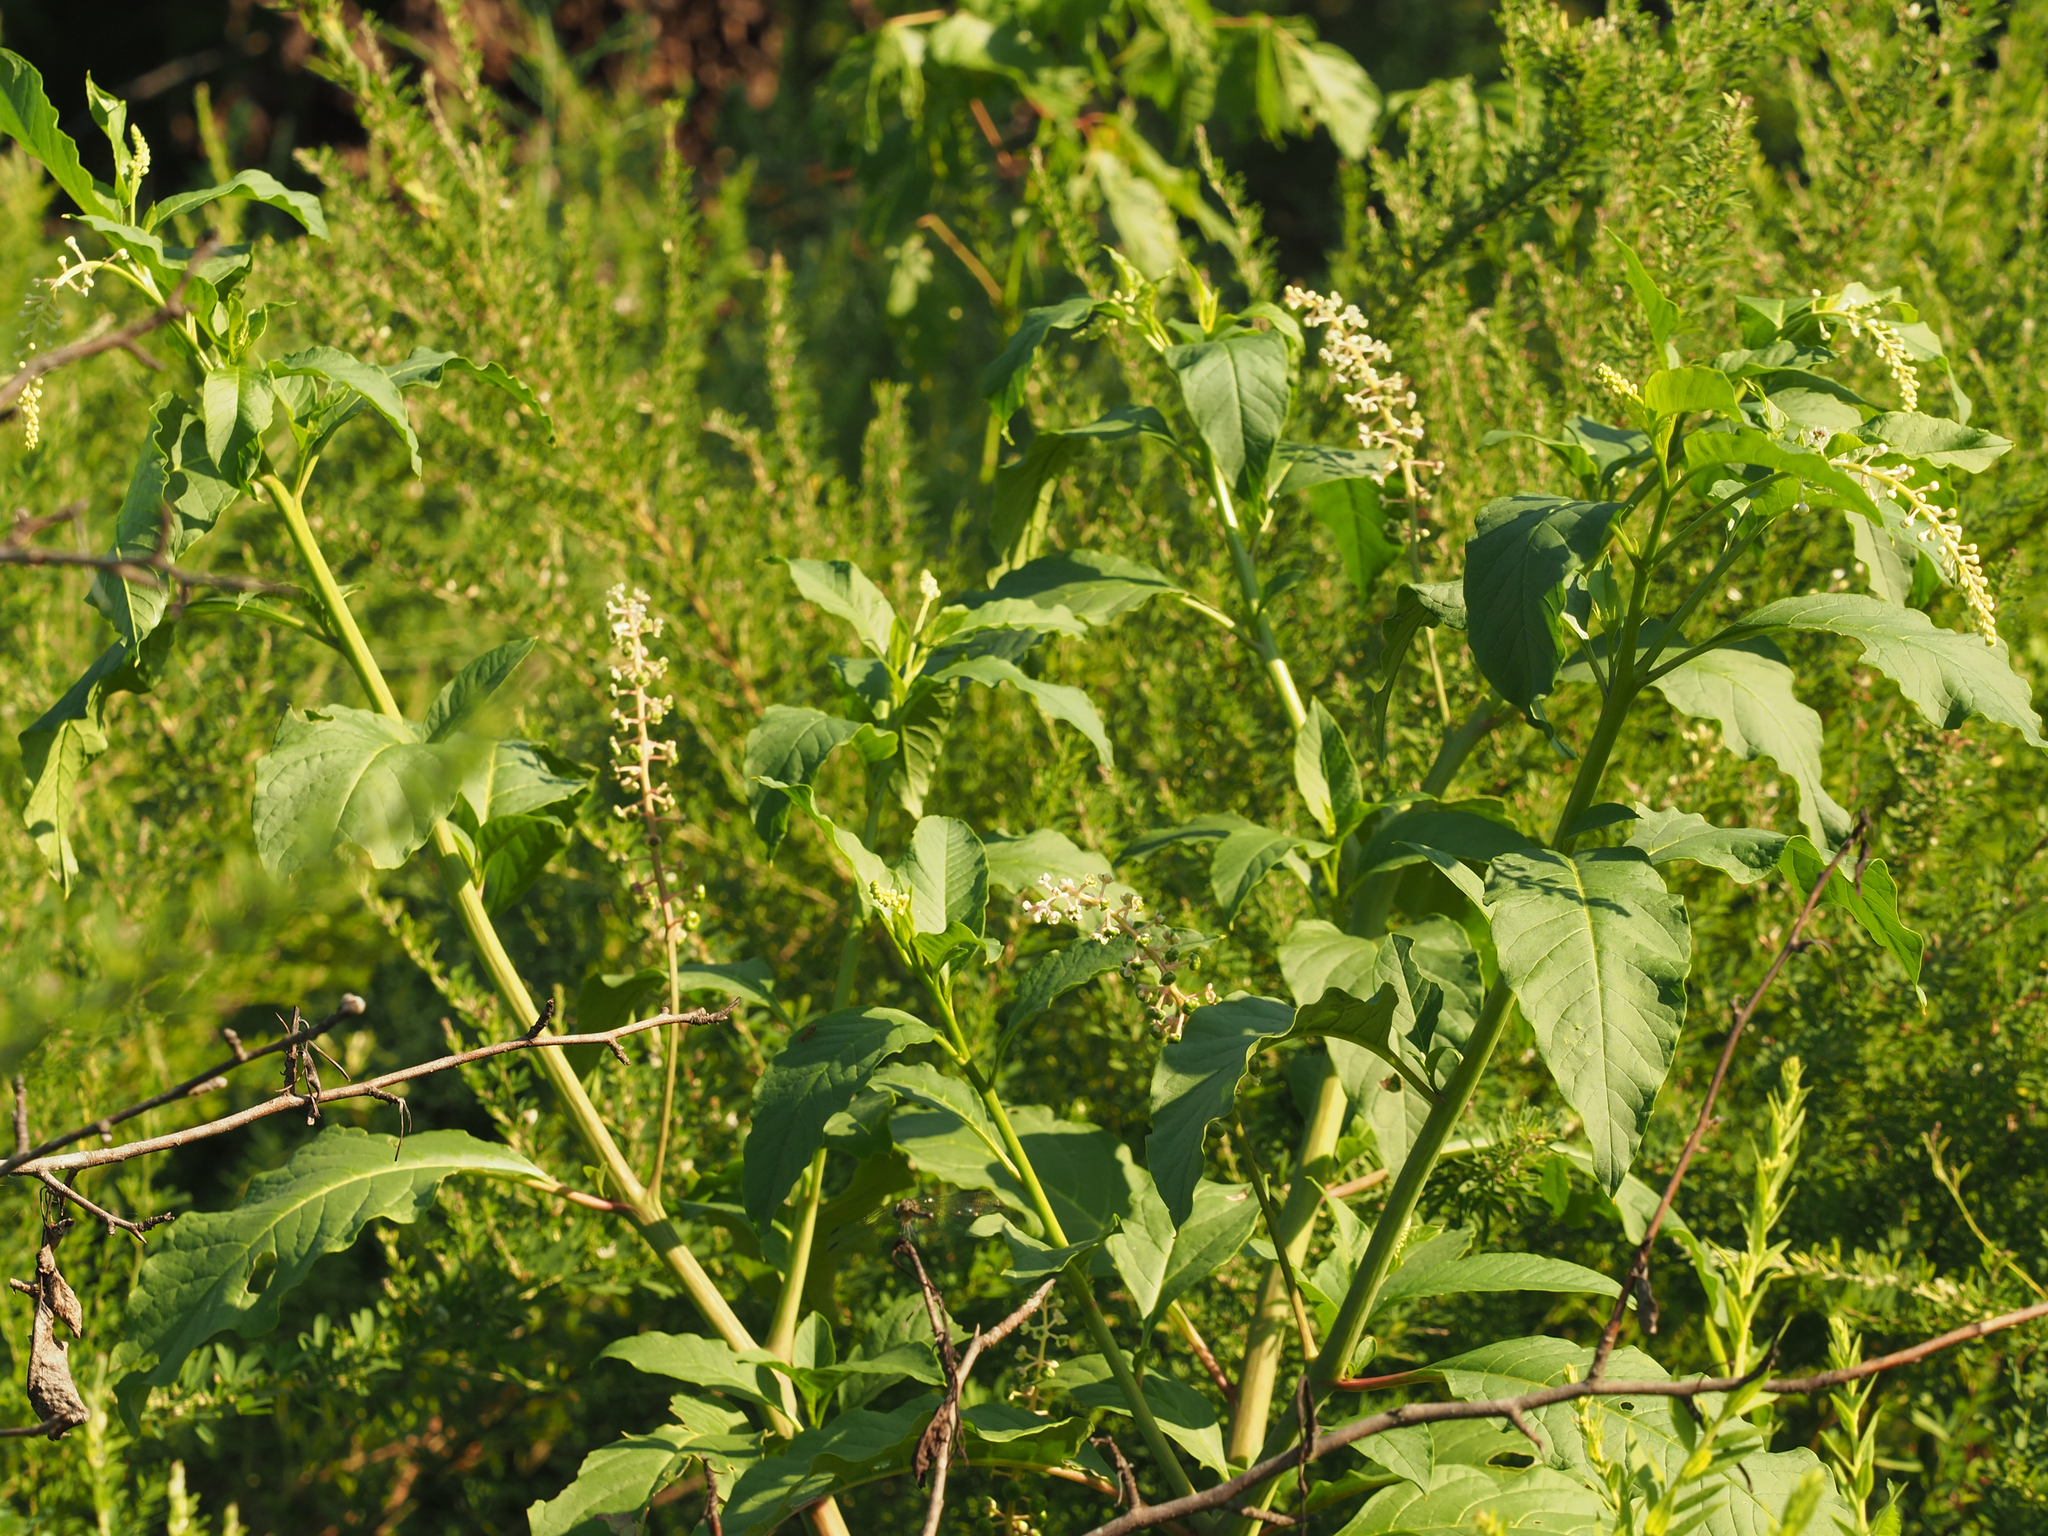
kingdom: Plantae
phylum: Tracheophyta
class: Magnoliopsida
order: Caryophyllales
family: Phytolaccaceae
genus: Phytolacca
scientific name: Phytolacca americana
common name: American pokeweed
